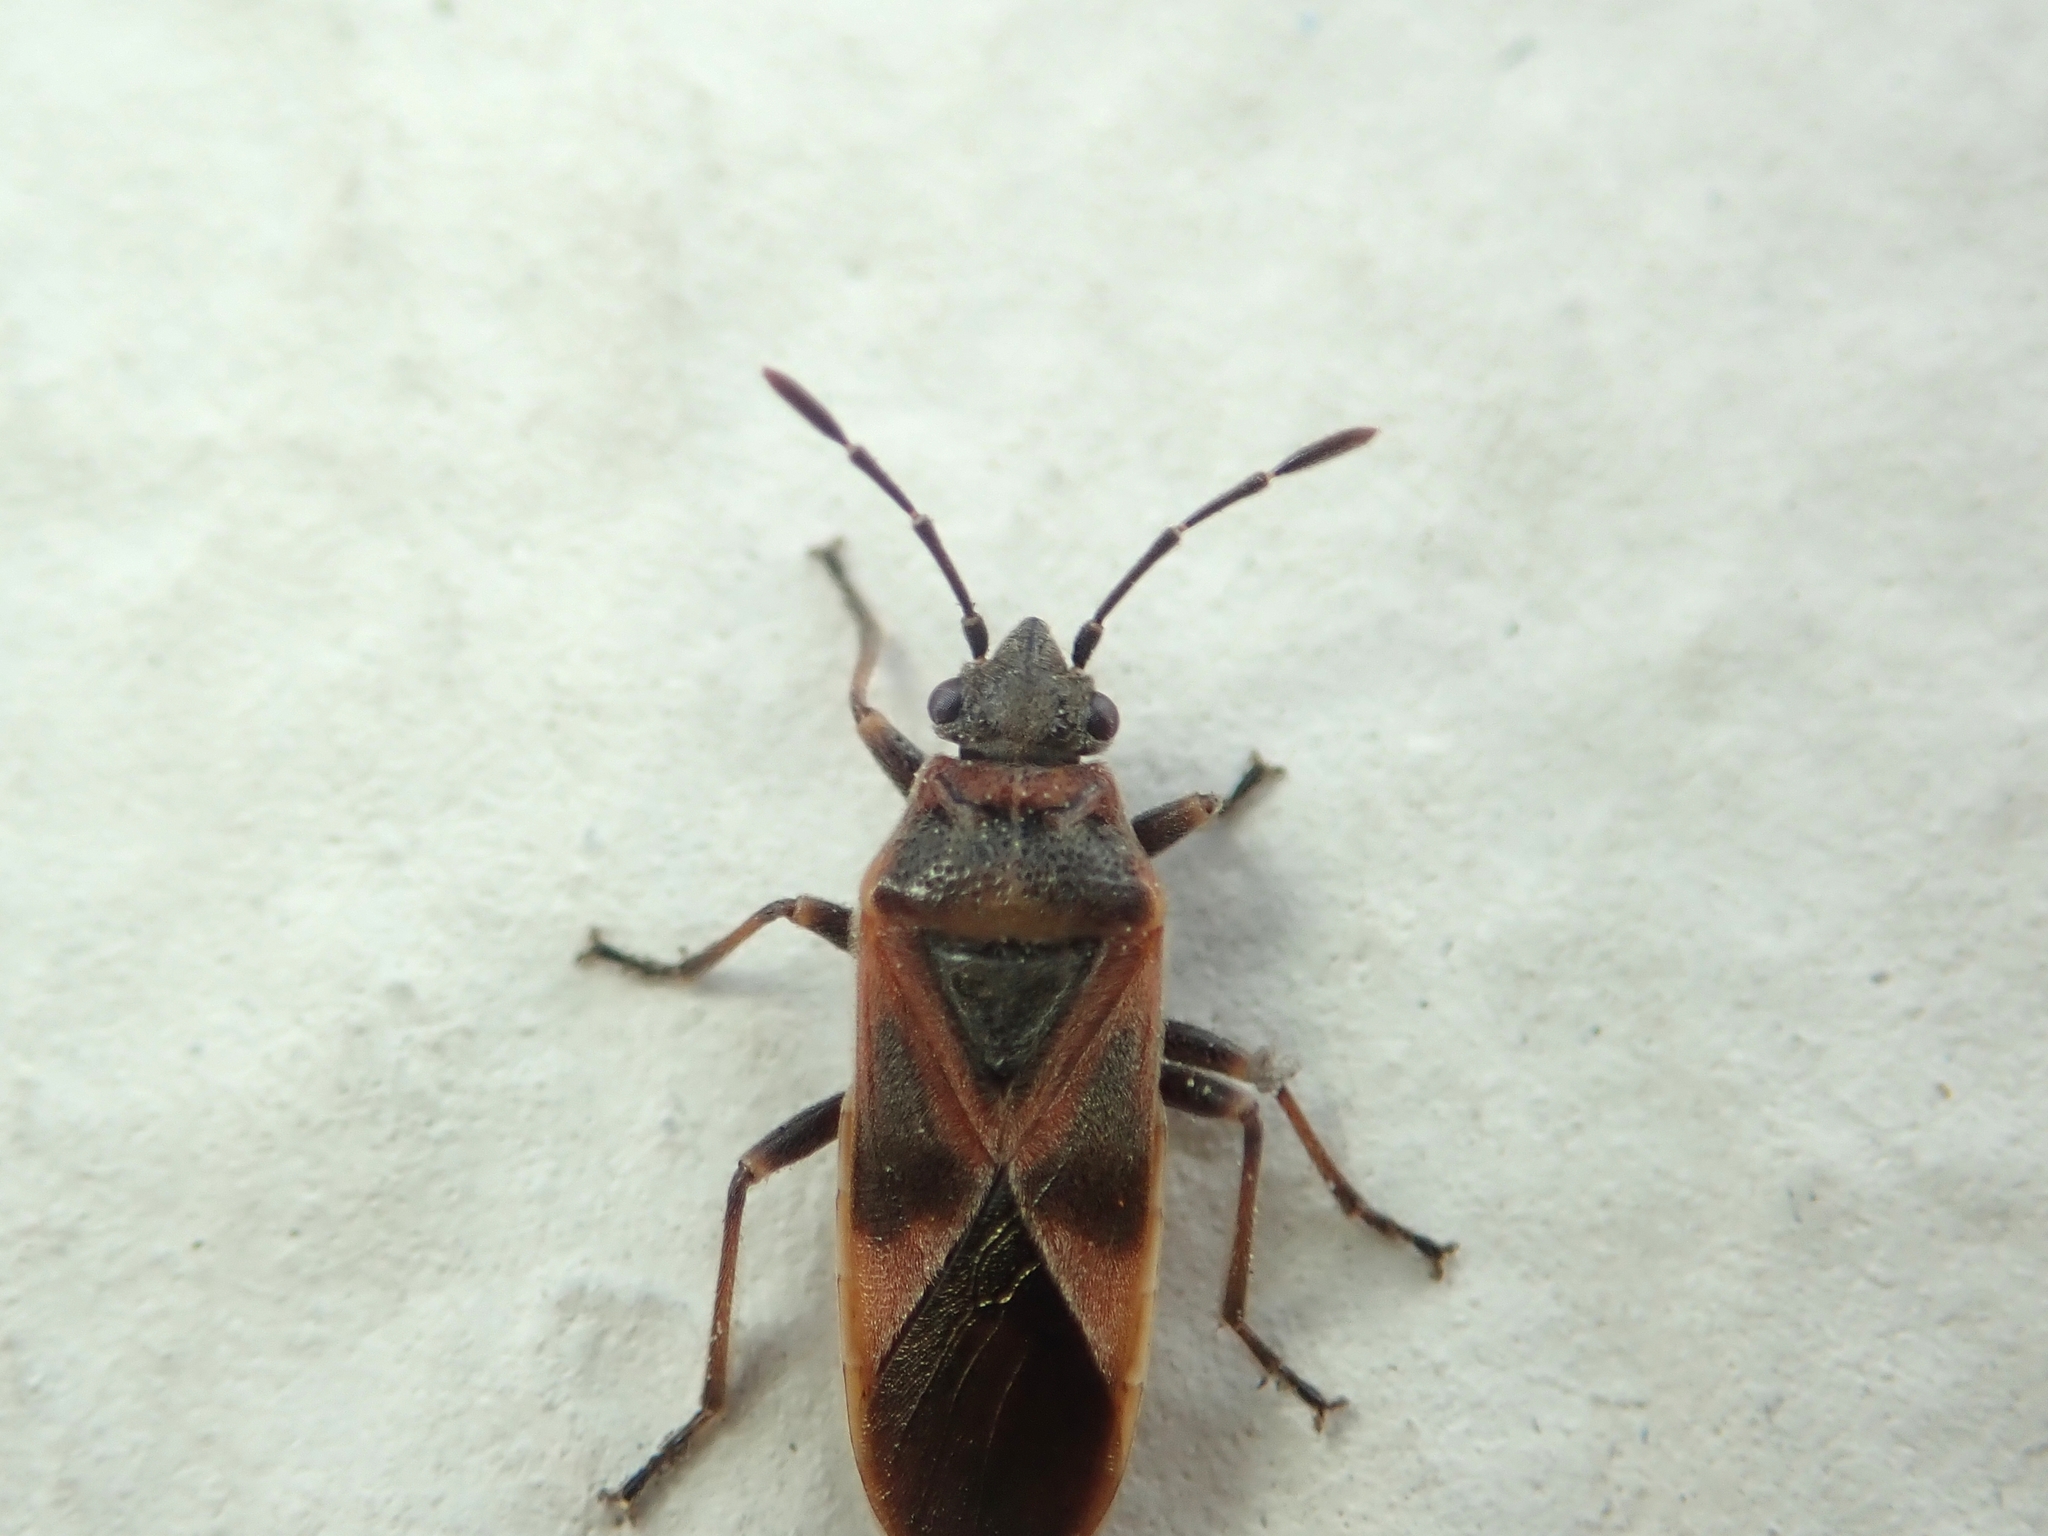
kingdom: Animalia
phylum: Arthropoda
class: Insecta
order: Hemiptera
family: Lygaeidae
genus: Arocatus
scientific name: Arocatus roeselii
